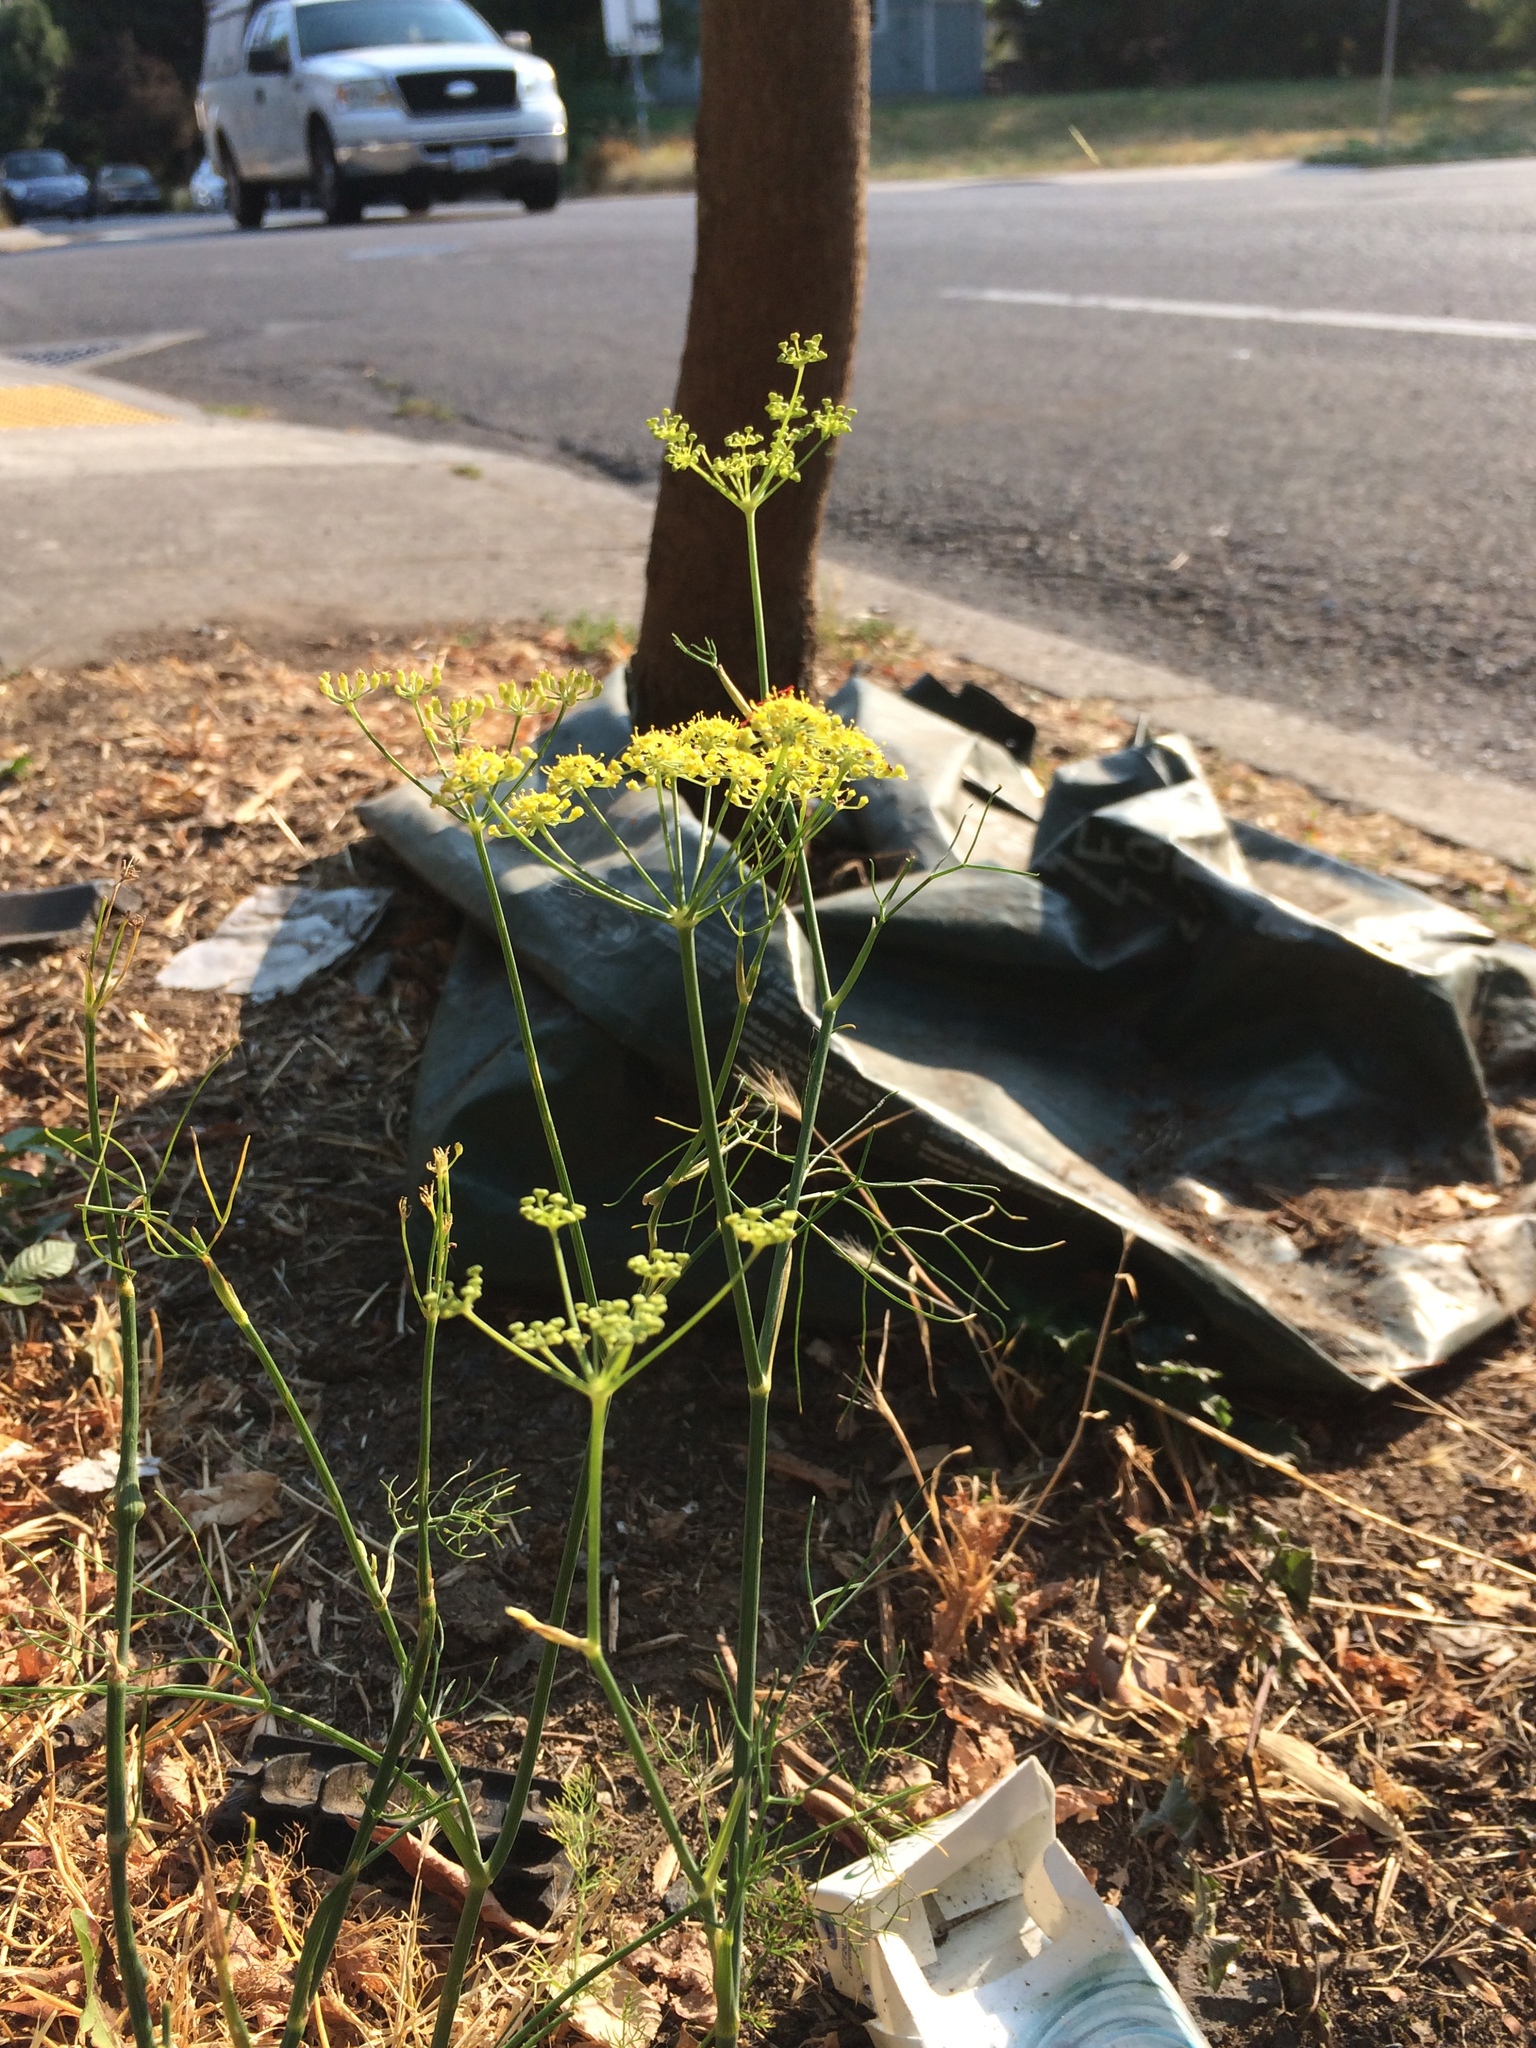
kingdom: Plantae
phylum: Tracheophyta
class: Magnoliopsida
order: Apiales
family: Apiaceae
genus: Foeniculum
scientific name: Foeniculum vulgare
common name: Fennel
